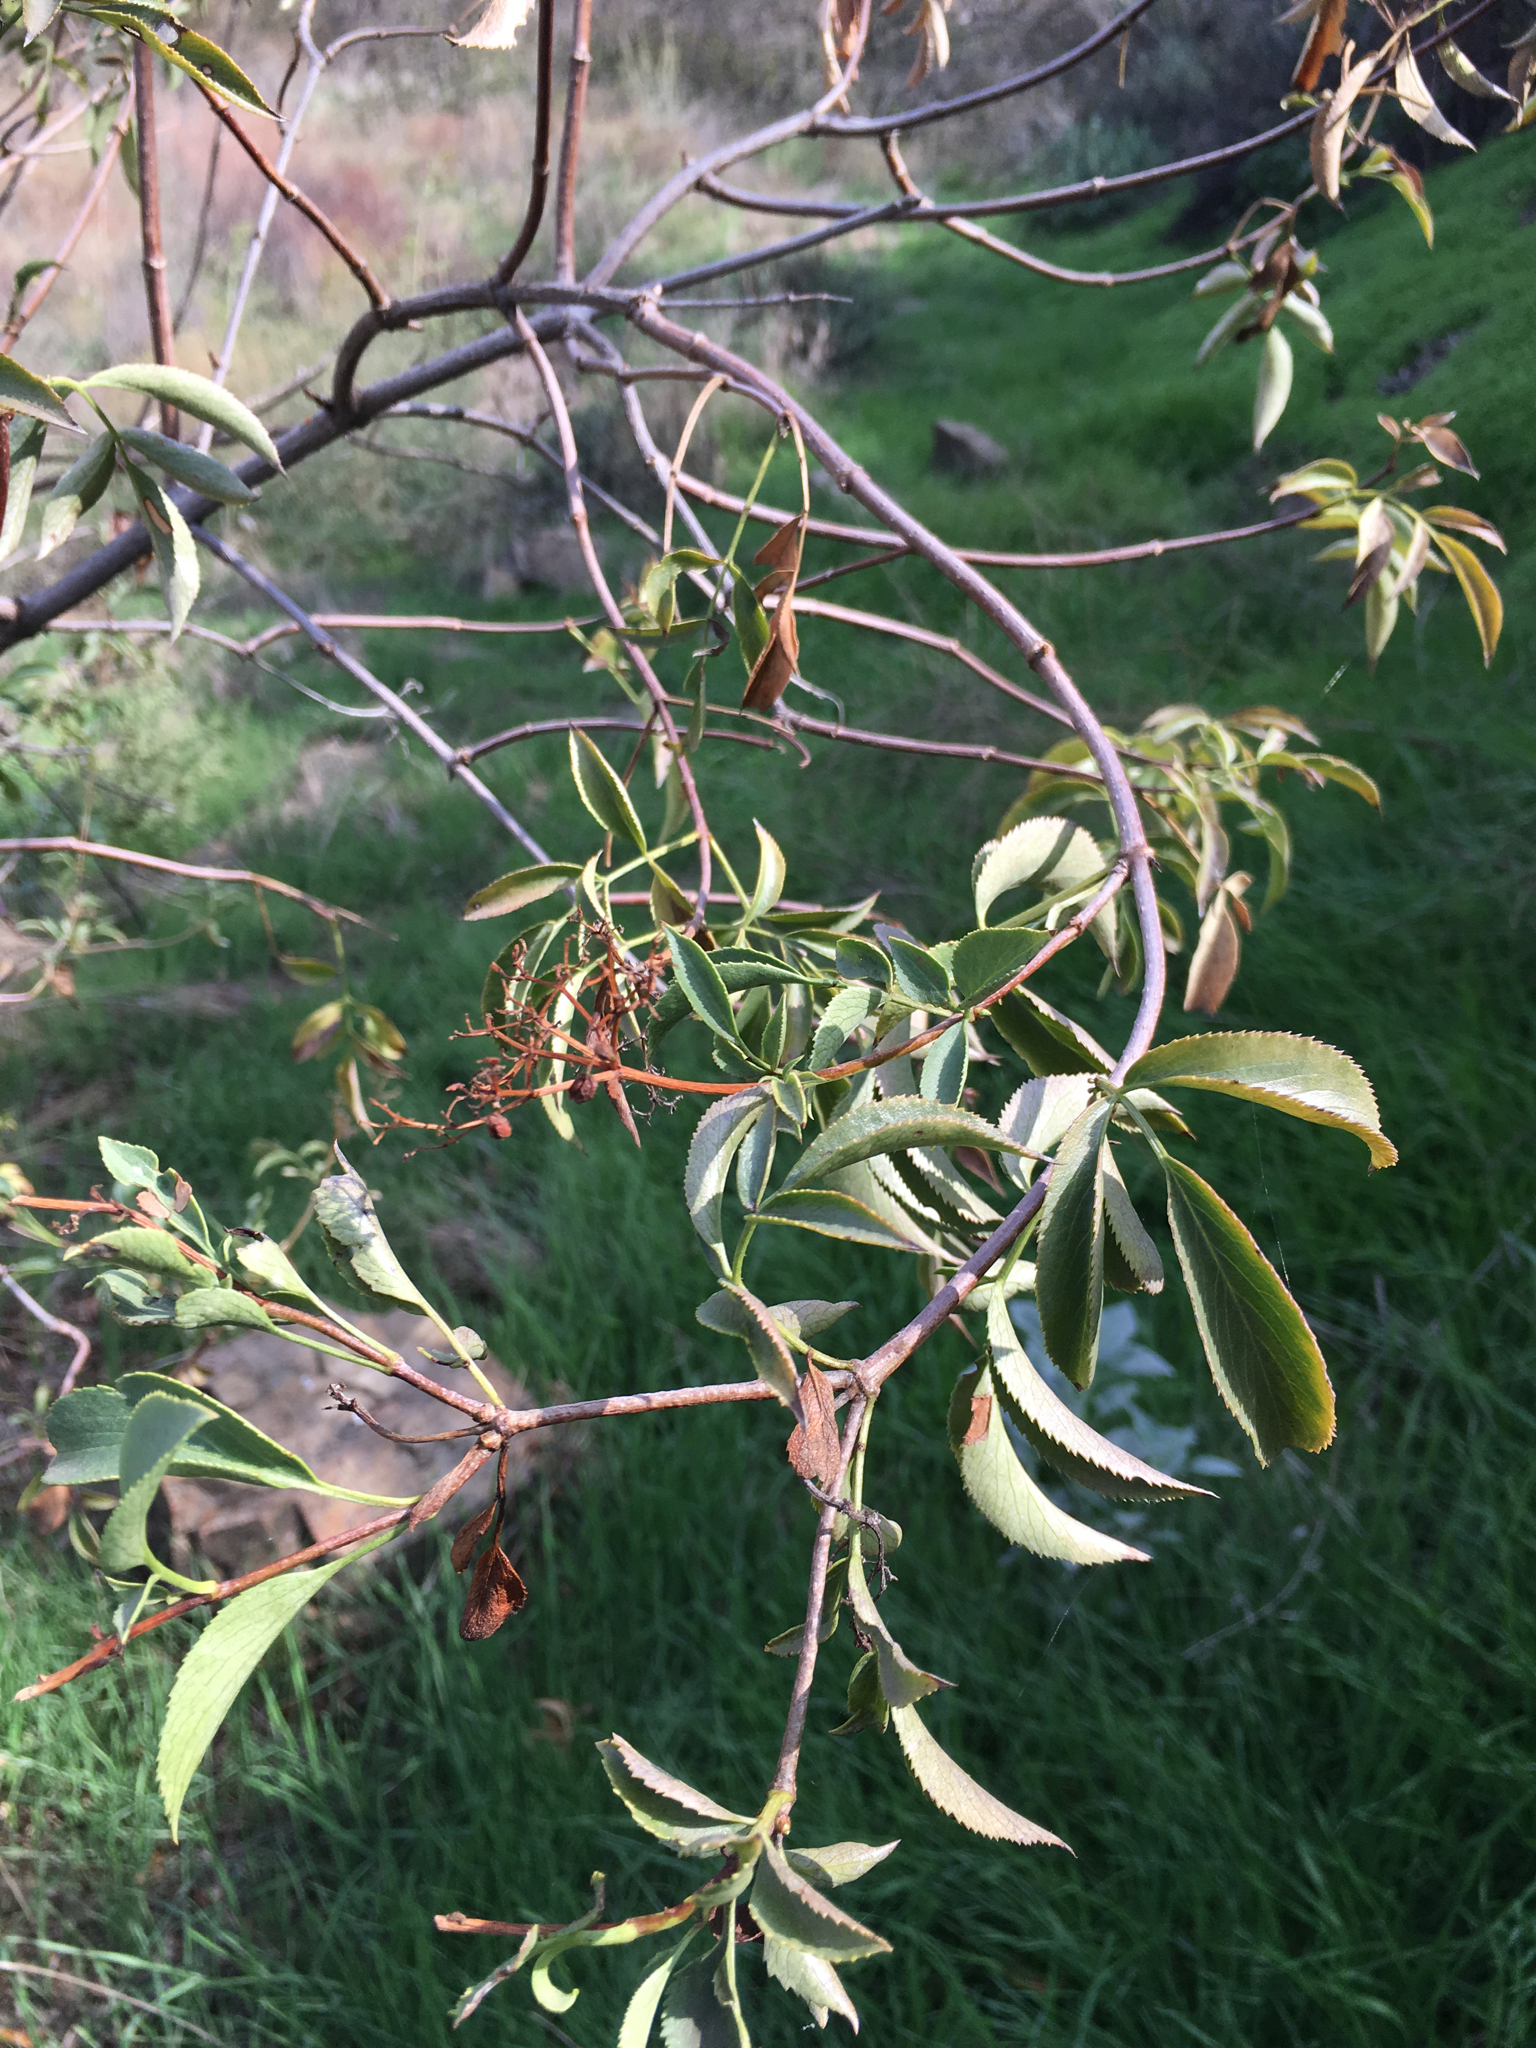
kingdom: Plantae
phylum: Tracheophyta
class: Magnoliopsida
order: Dipsacales
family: Viburnaceae
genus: Sambucus
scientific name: Sambucus cerulea
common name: Blue elder
